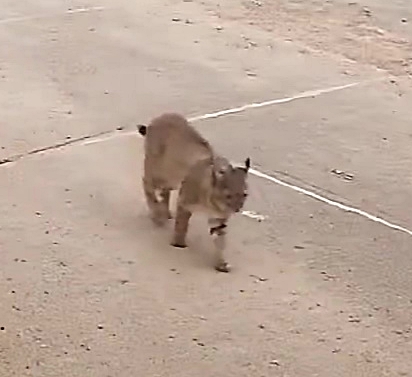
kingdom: Animalia
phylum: Chordata
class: Mammalia
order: Carnivora
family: Felidae
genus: Lynx
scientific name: Lynx rufus
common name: Bobcat
